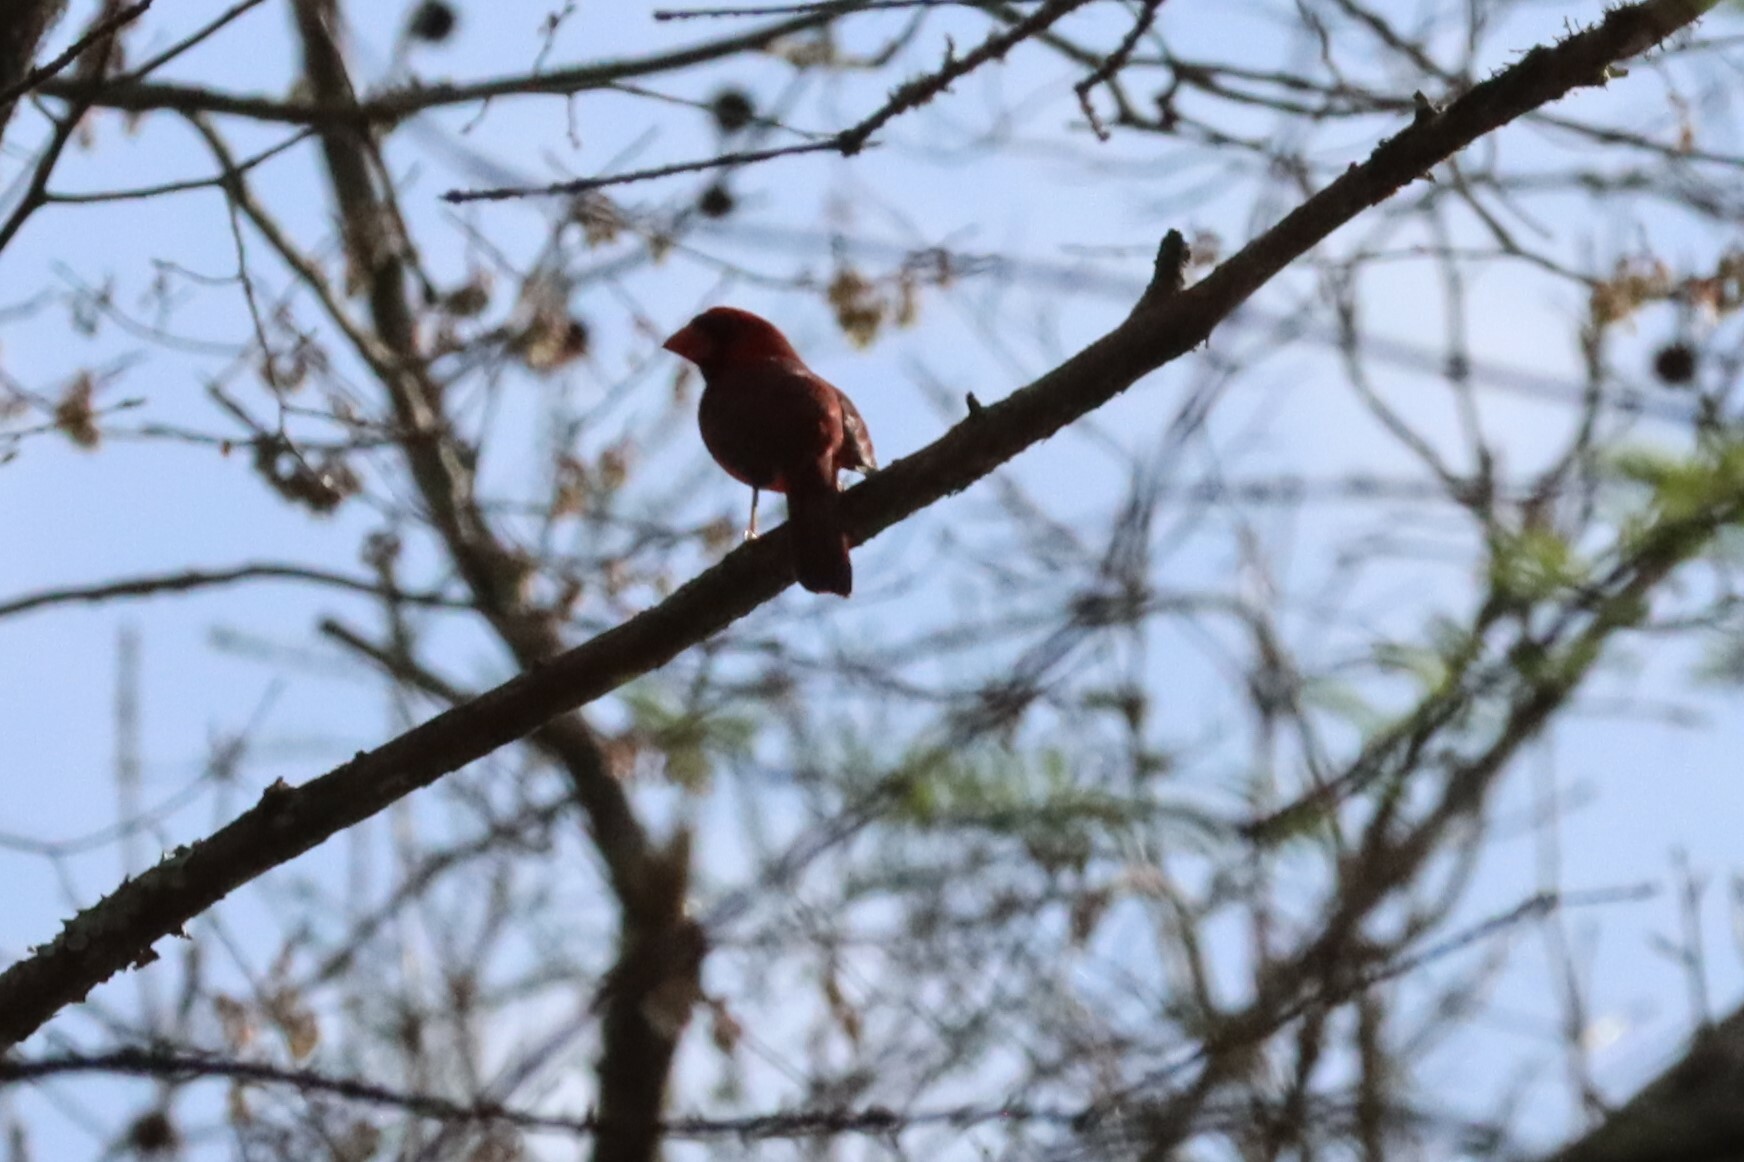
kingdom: Animalia
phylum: Chordata
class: Aves
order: Passeriformes
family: Cardinalidae
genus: Cardinalis
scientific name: Cardinalis cardinalis
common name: Northern cardinal
